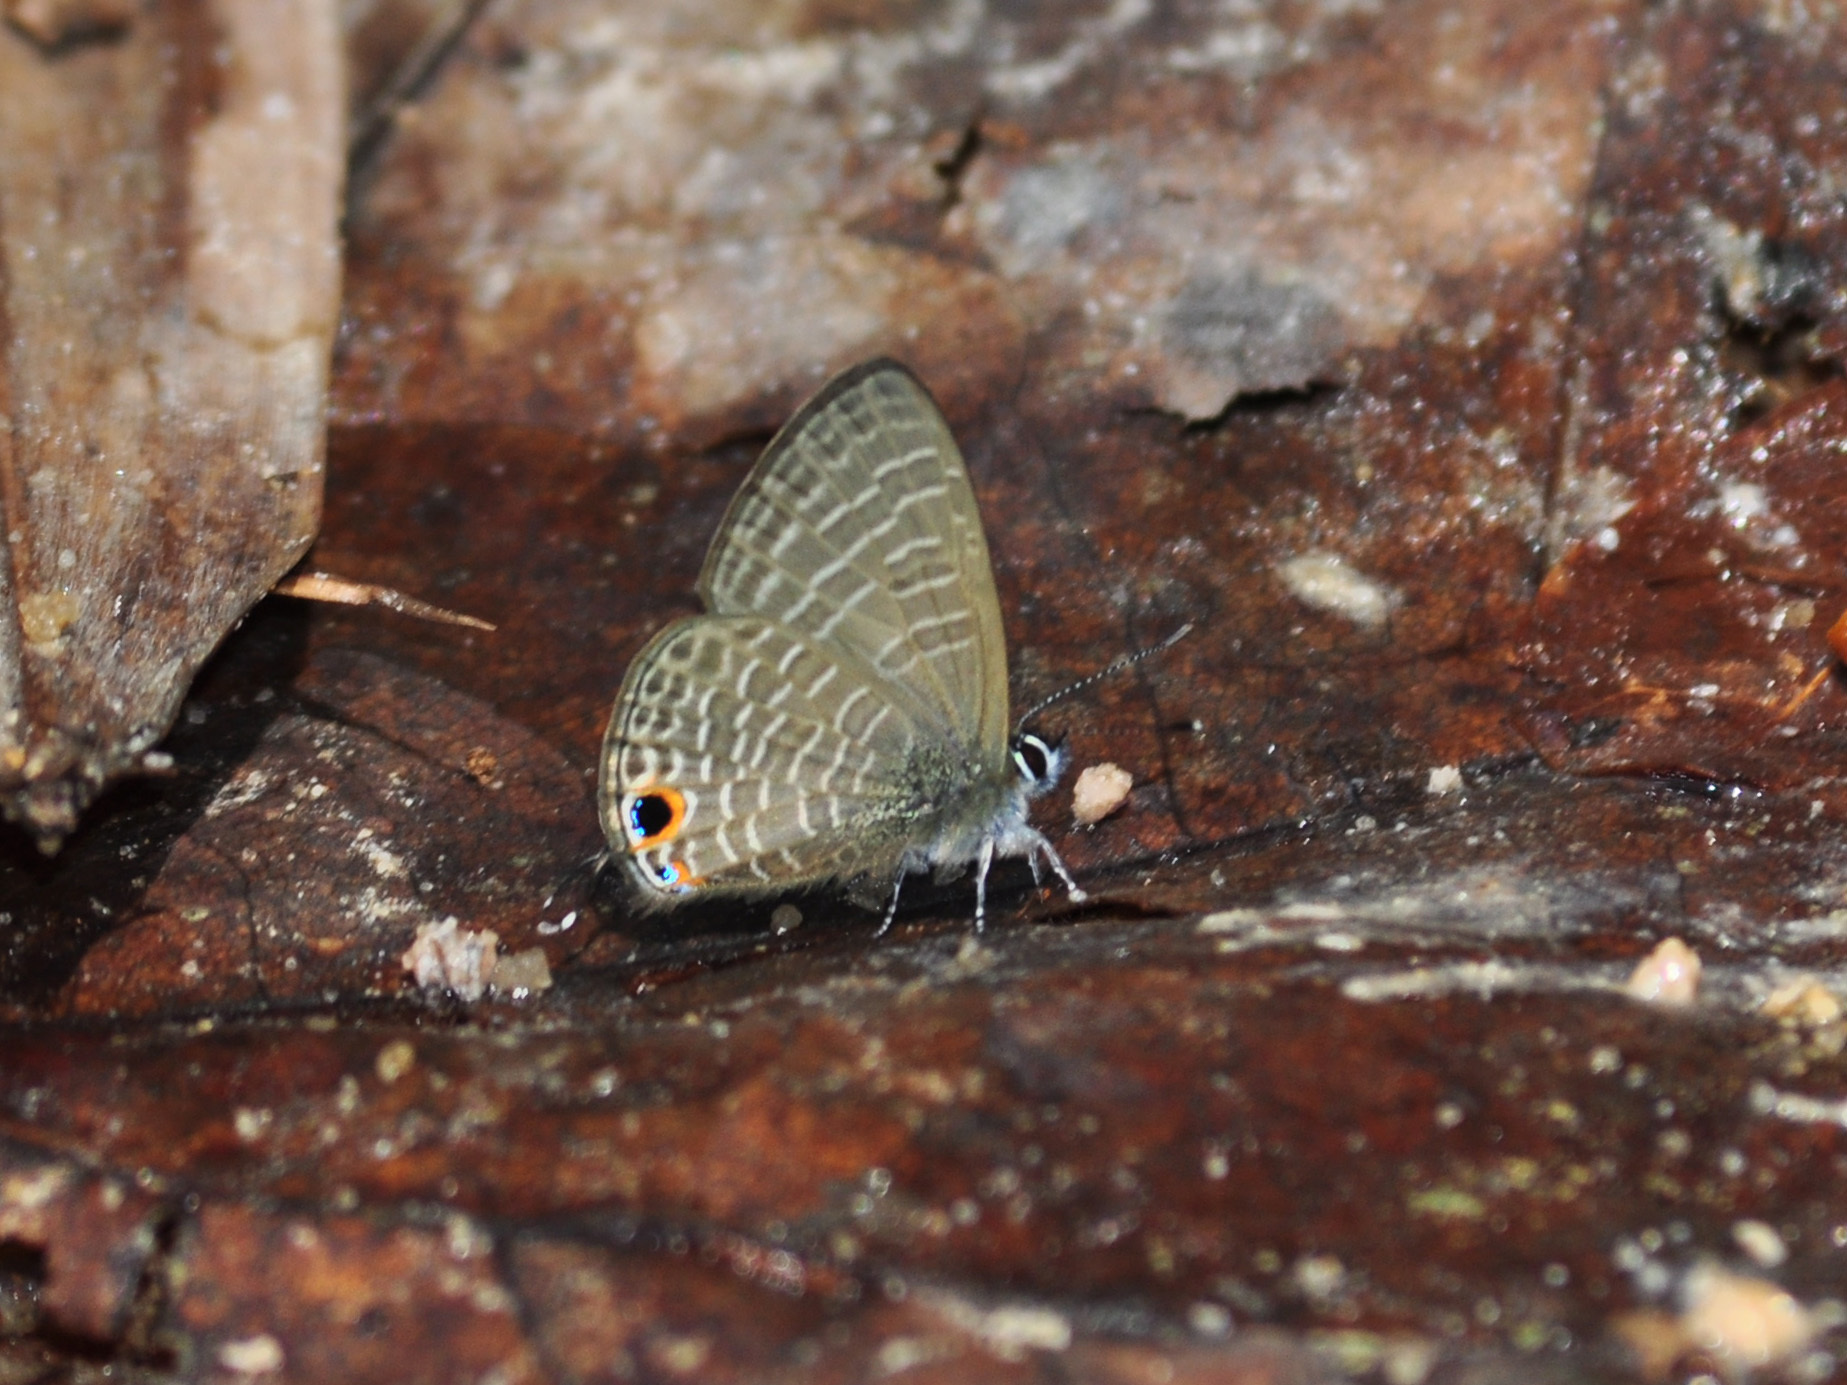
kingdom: Animalia
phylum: Arthropoda
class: Insecta
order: Lepidoptera
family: Lycaenidae
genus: Nacaduba
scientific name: Nacaduba beroe
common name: Opaque sixline blue
